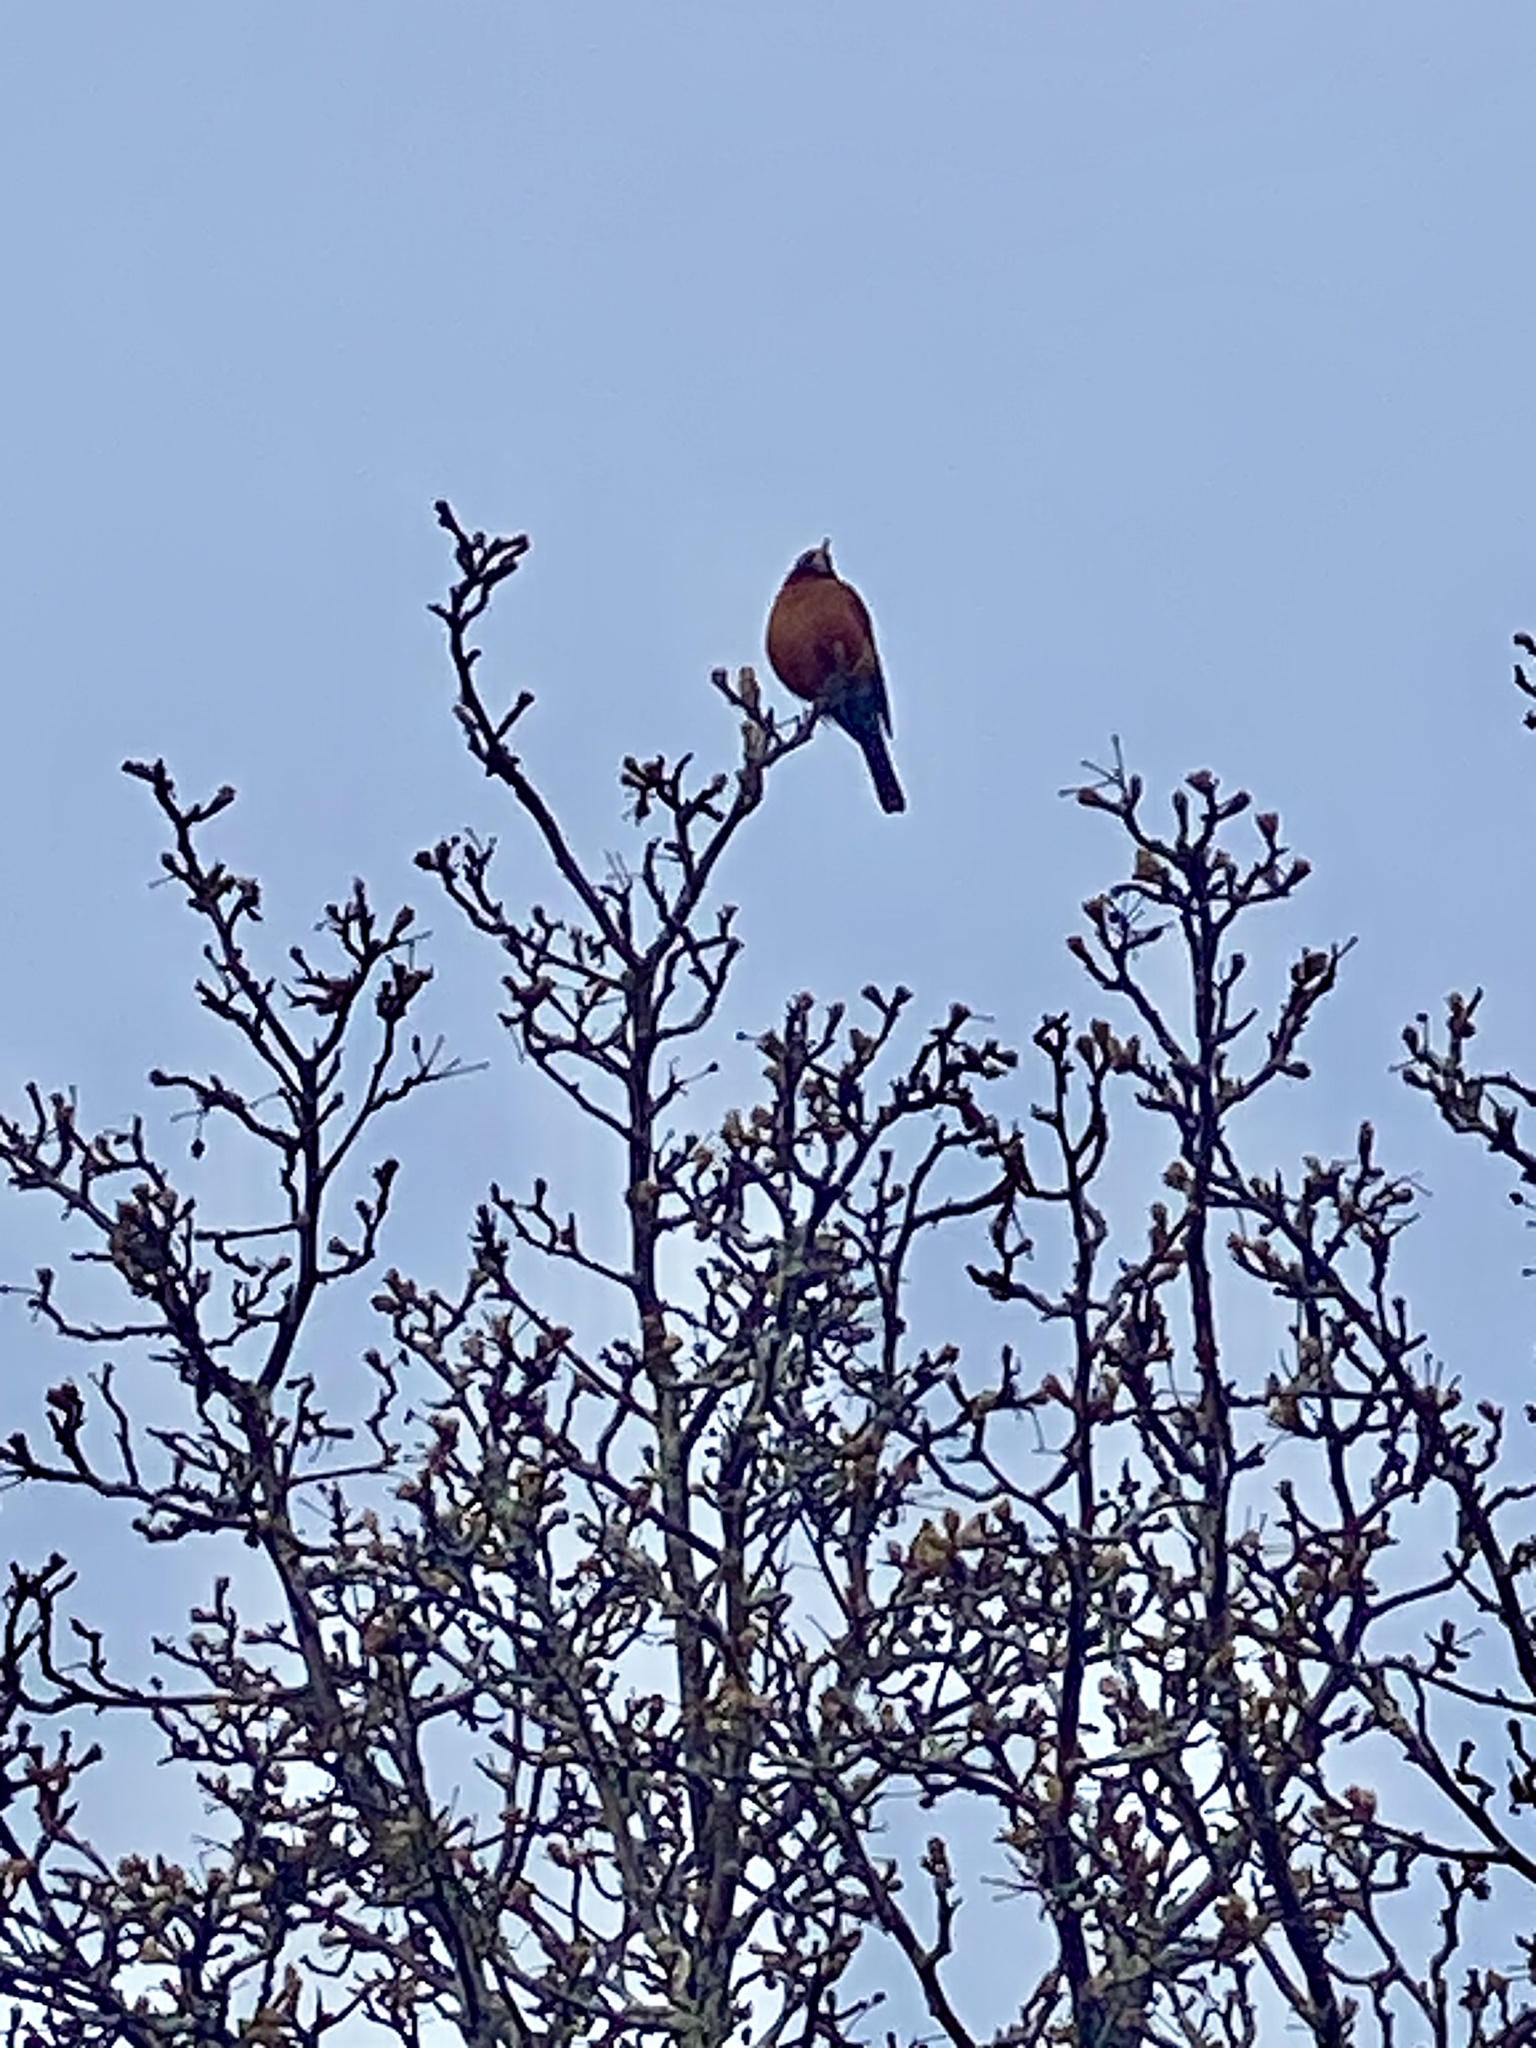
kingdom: Animalia
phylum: Chordata
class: Aves
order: Passeriformes
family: Turdidae
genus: Turdus
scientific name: Turdus migratorius
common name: American robin
